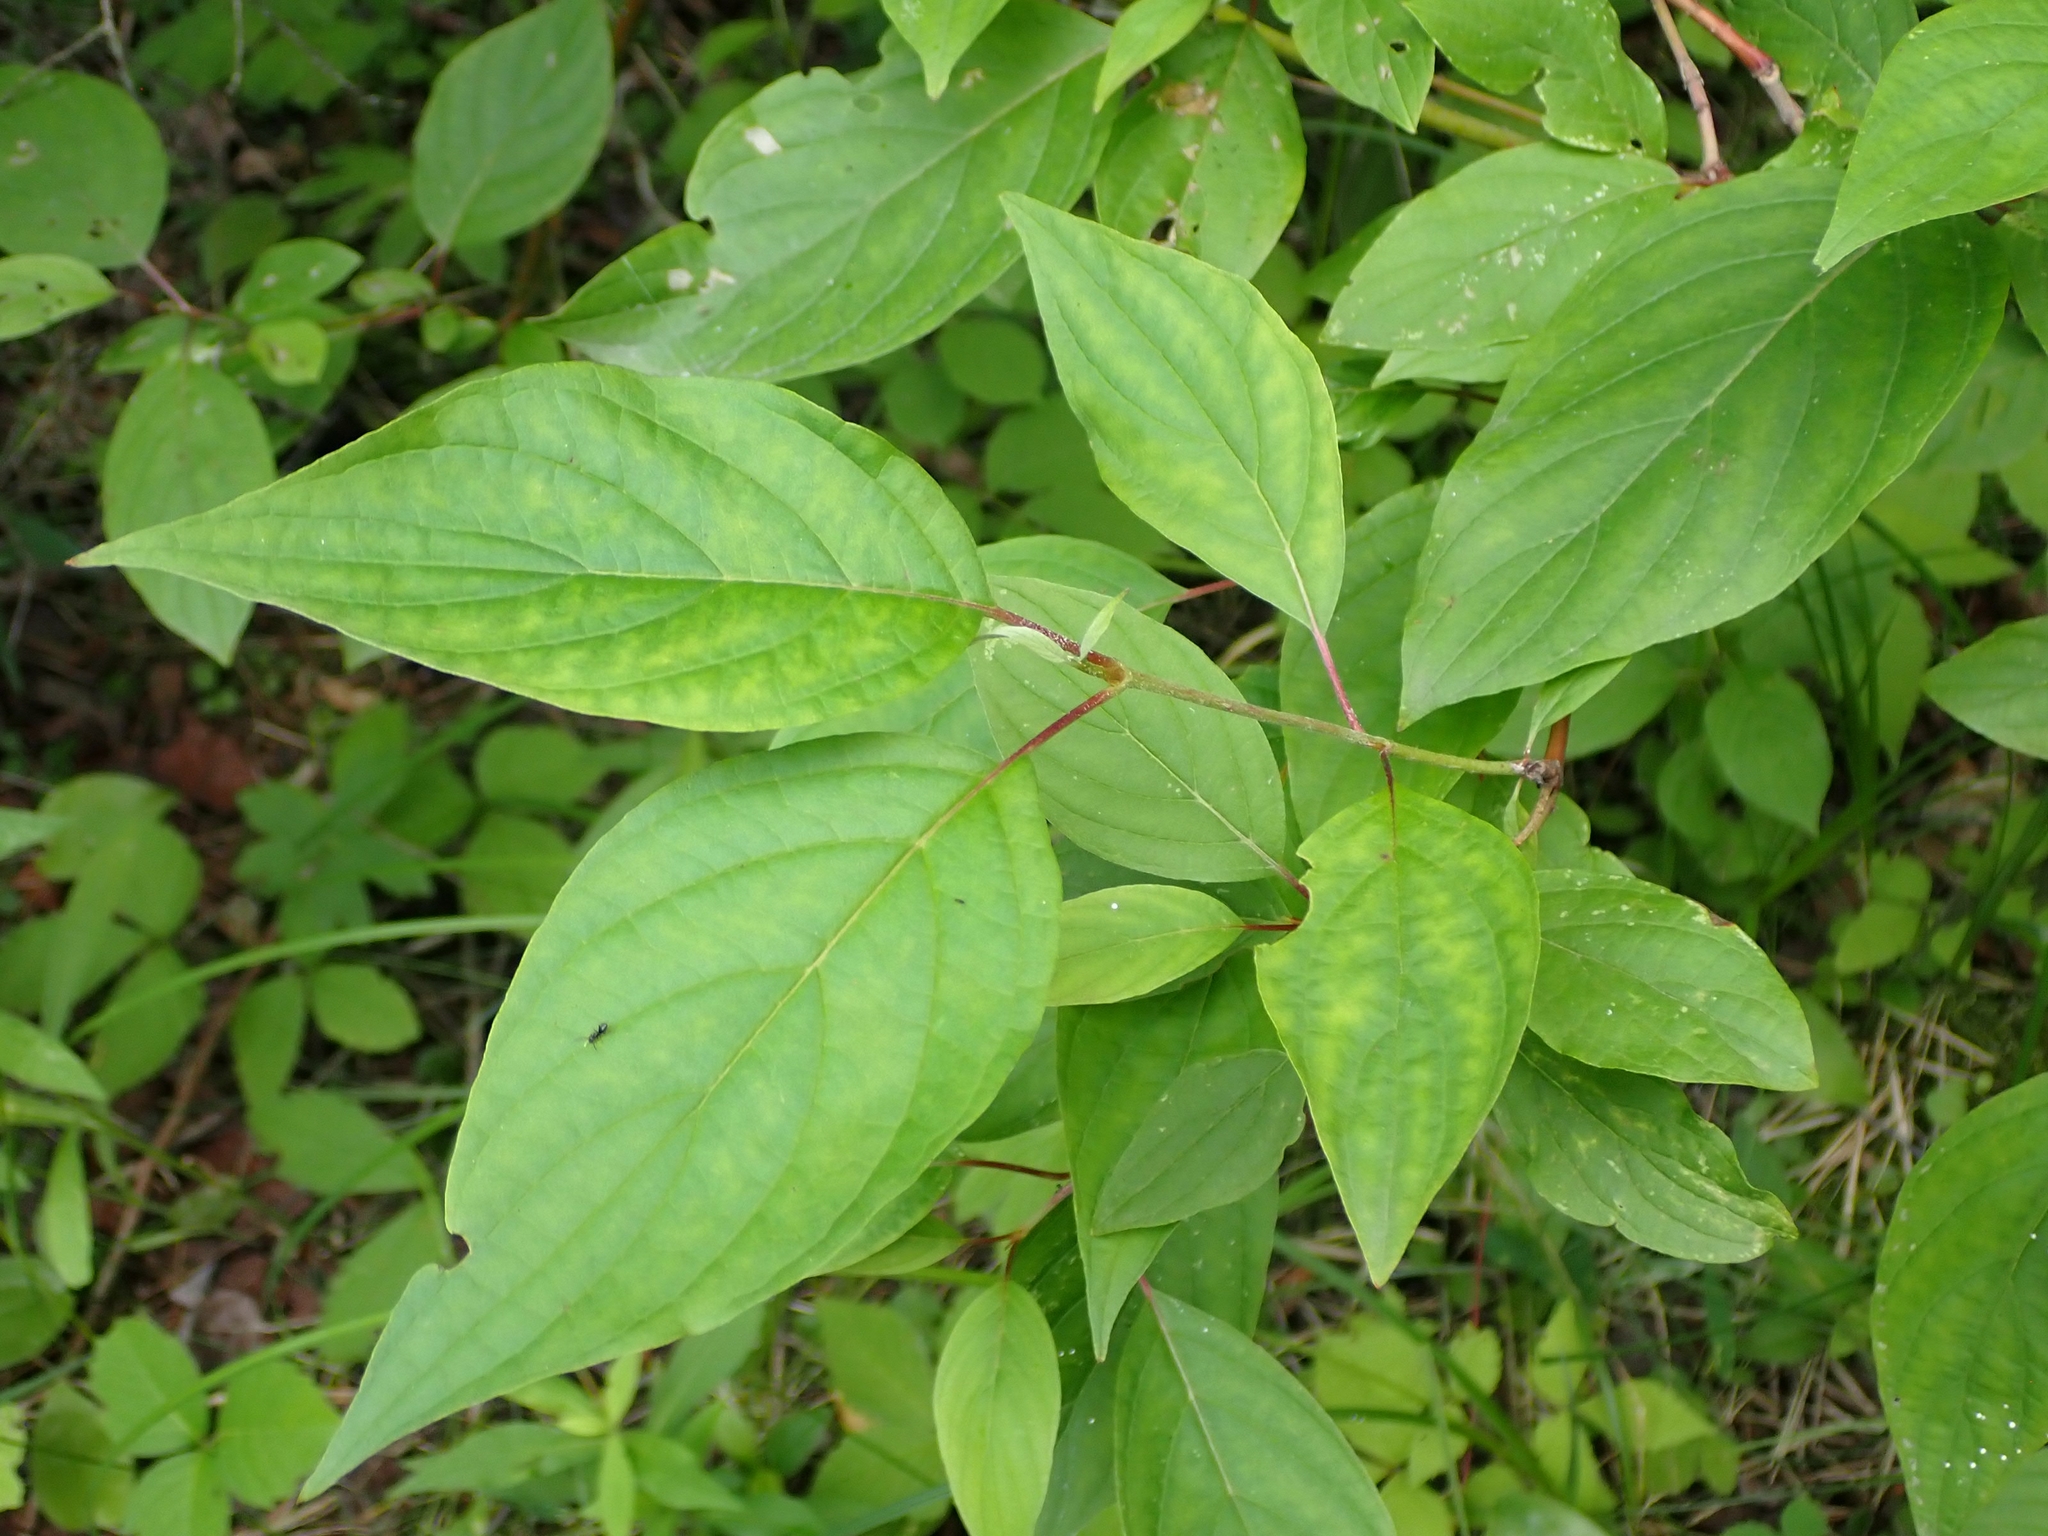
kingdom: Plantae
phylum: Tracheophyta
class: Magnoliopsida
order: Cornales
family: Cornaceae
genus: Cornus
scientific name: Cornus sericea
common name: Red-osier dogwood
